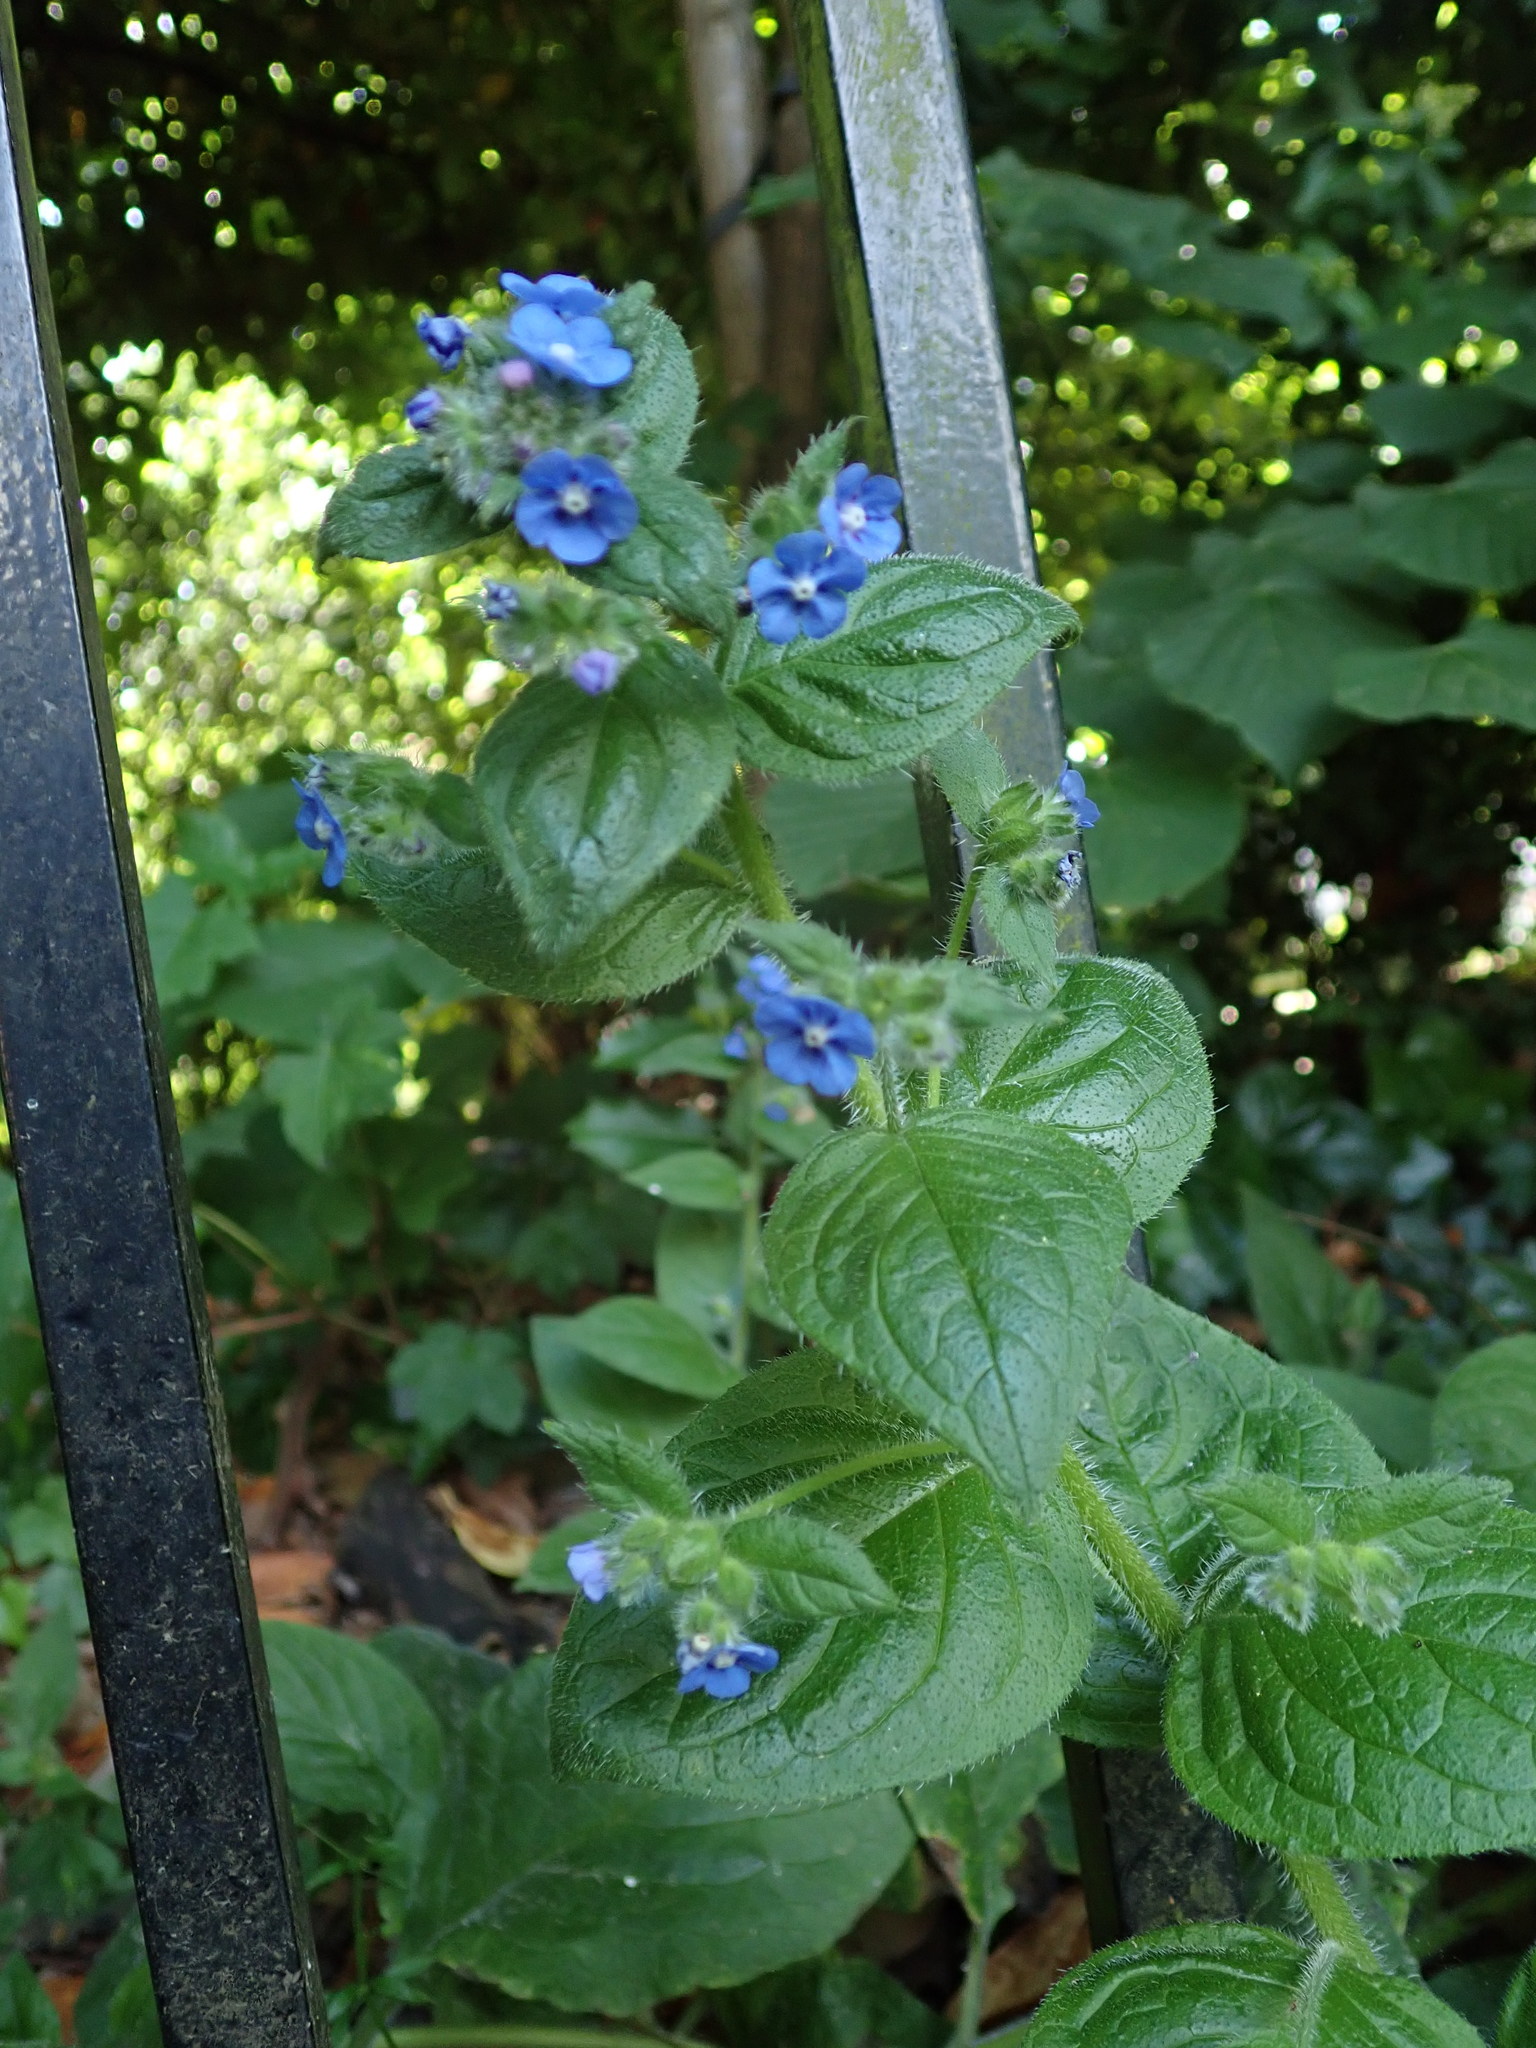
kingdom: Plantae
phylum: Tracheophyta
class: Magnoliopsida
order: Boraginales
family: Boraginaceae
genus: Pentaglottis
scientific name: Pentaglottis sempervirens
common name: Green alkanet
